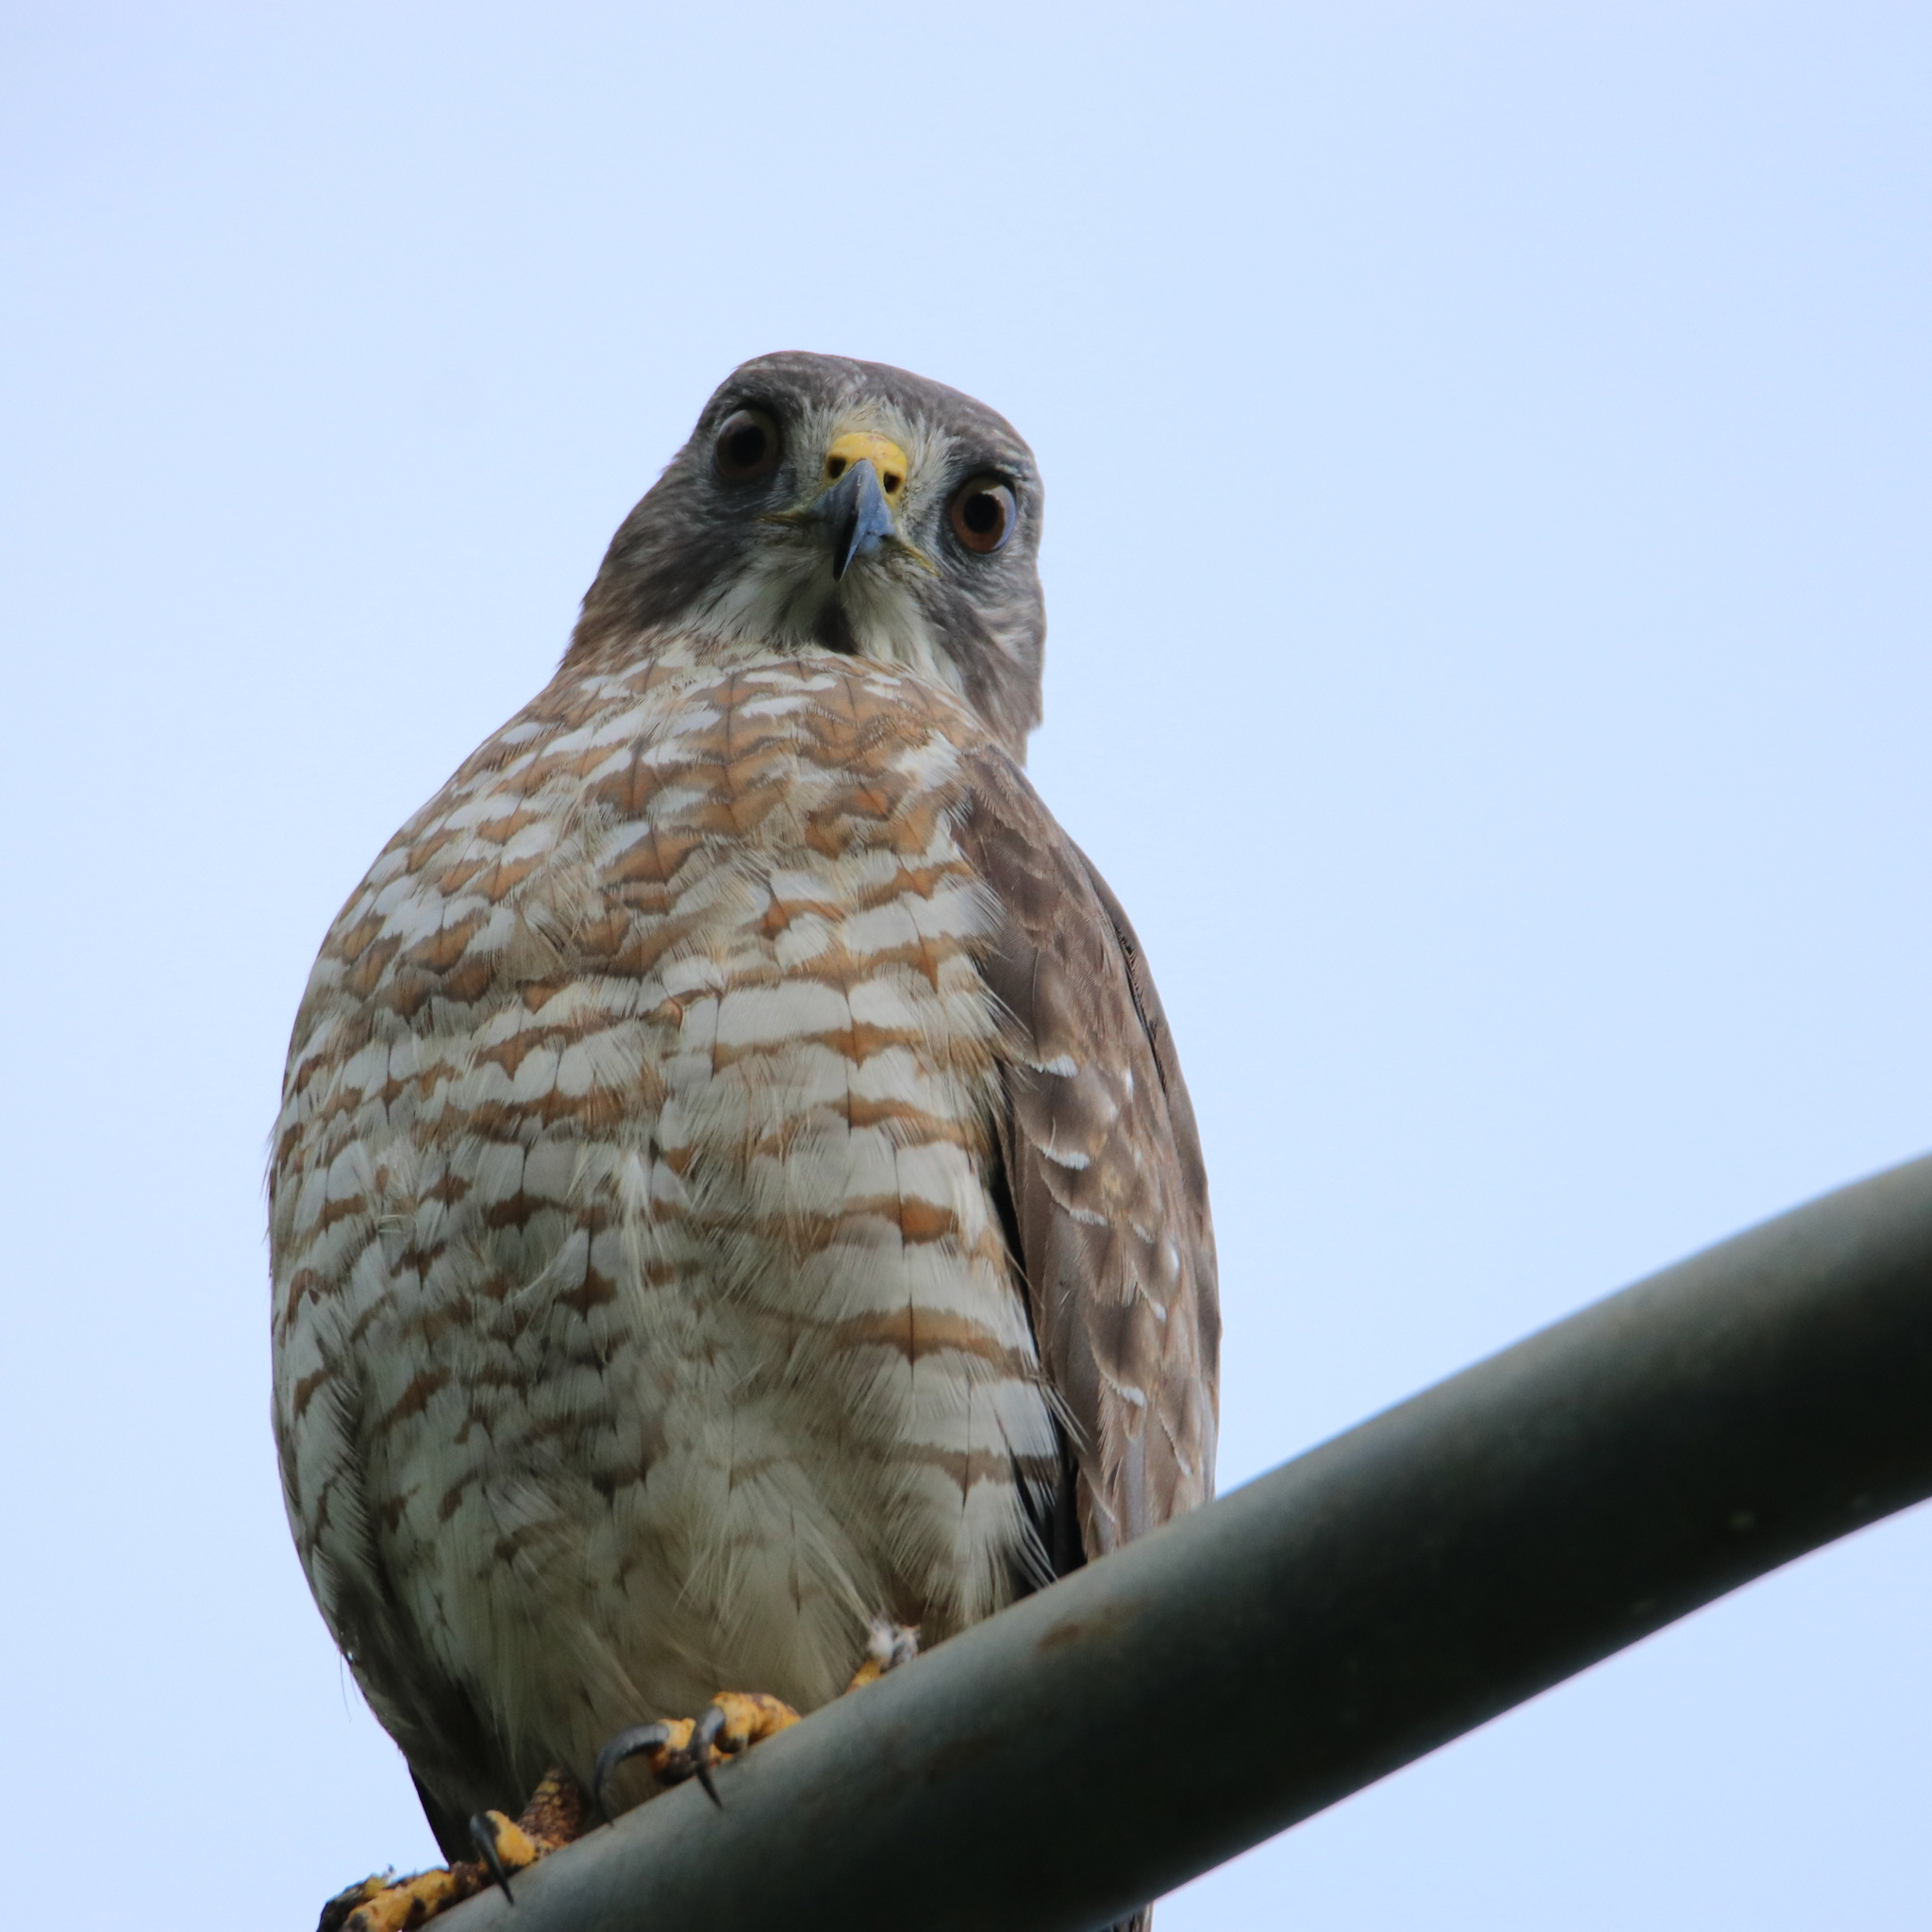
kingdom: Animalia
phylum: Chordata
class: Aves
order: Accipitriformes
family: Accipitridae
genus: Buteo
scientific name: Buteo platypterus
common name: Broad-winged hawk
